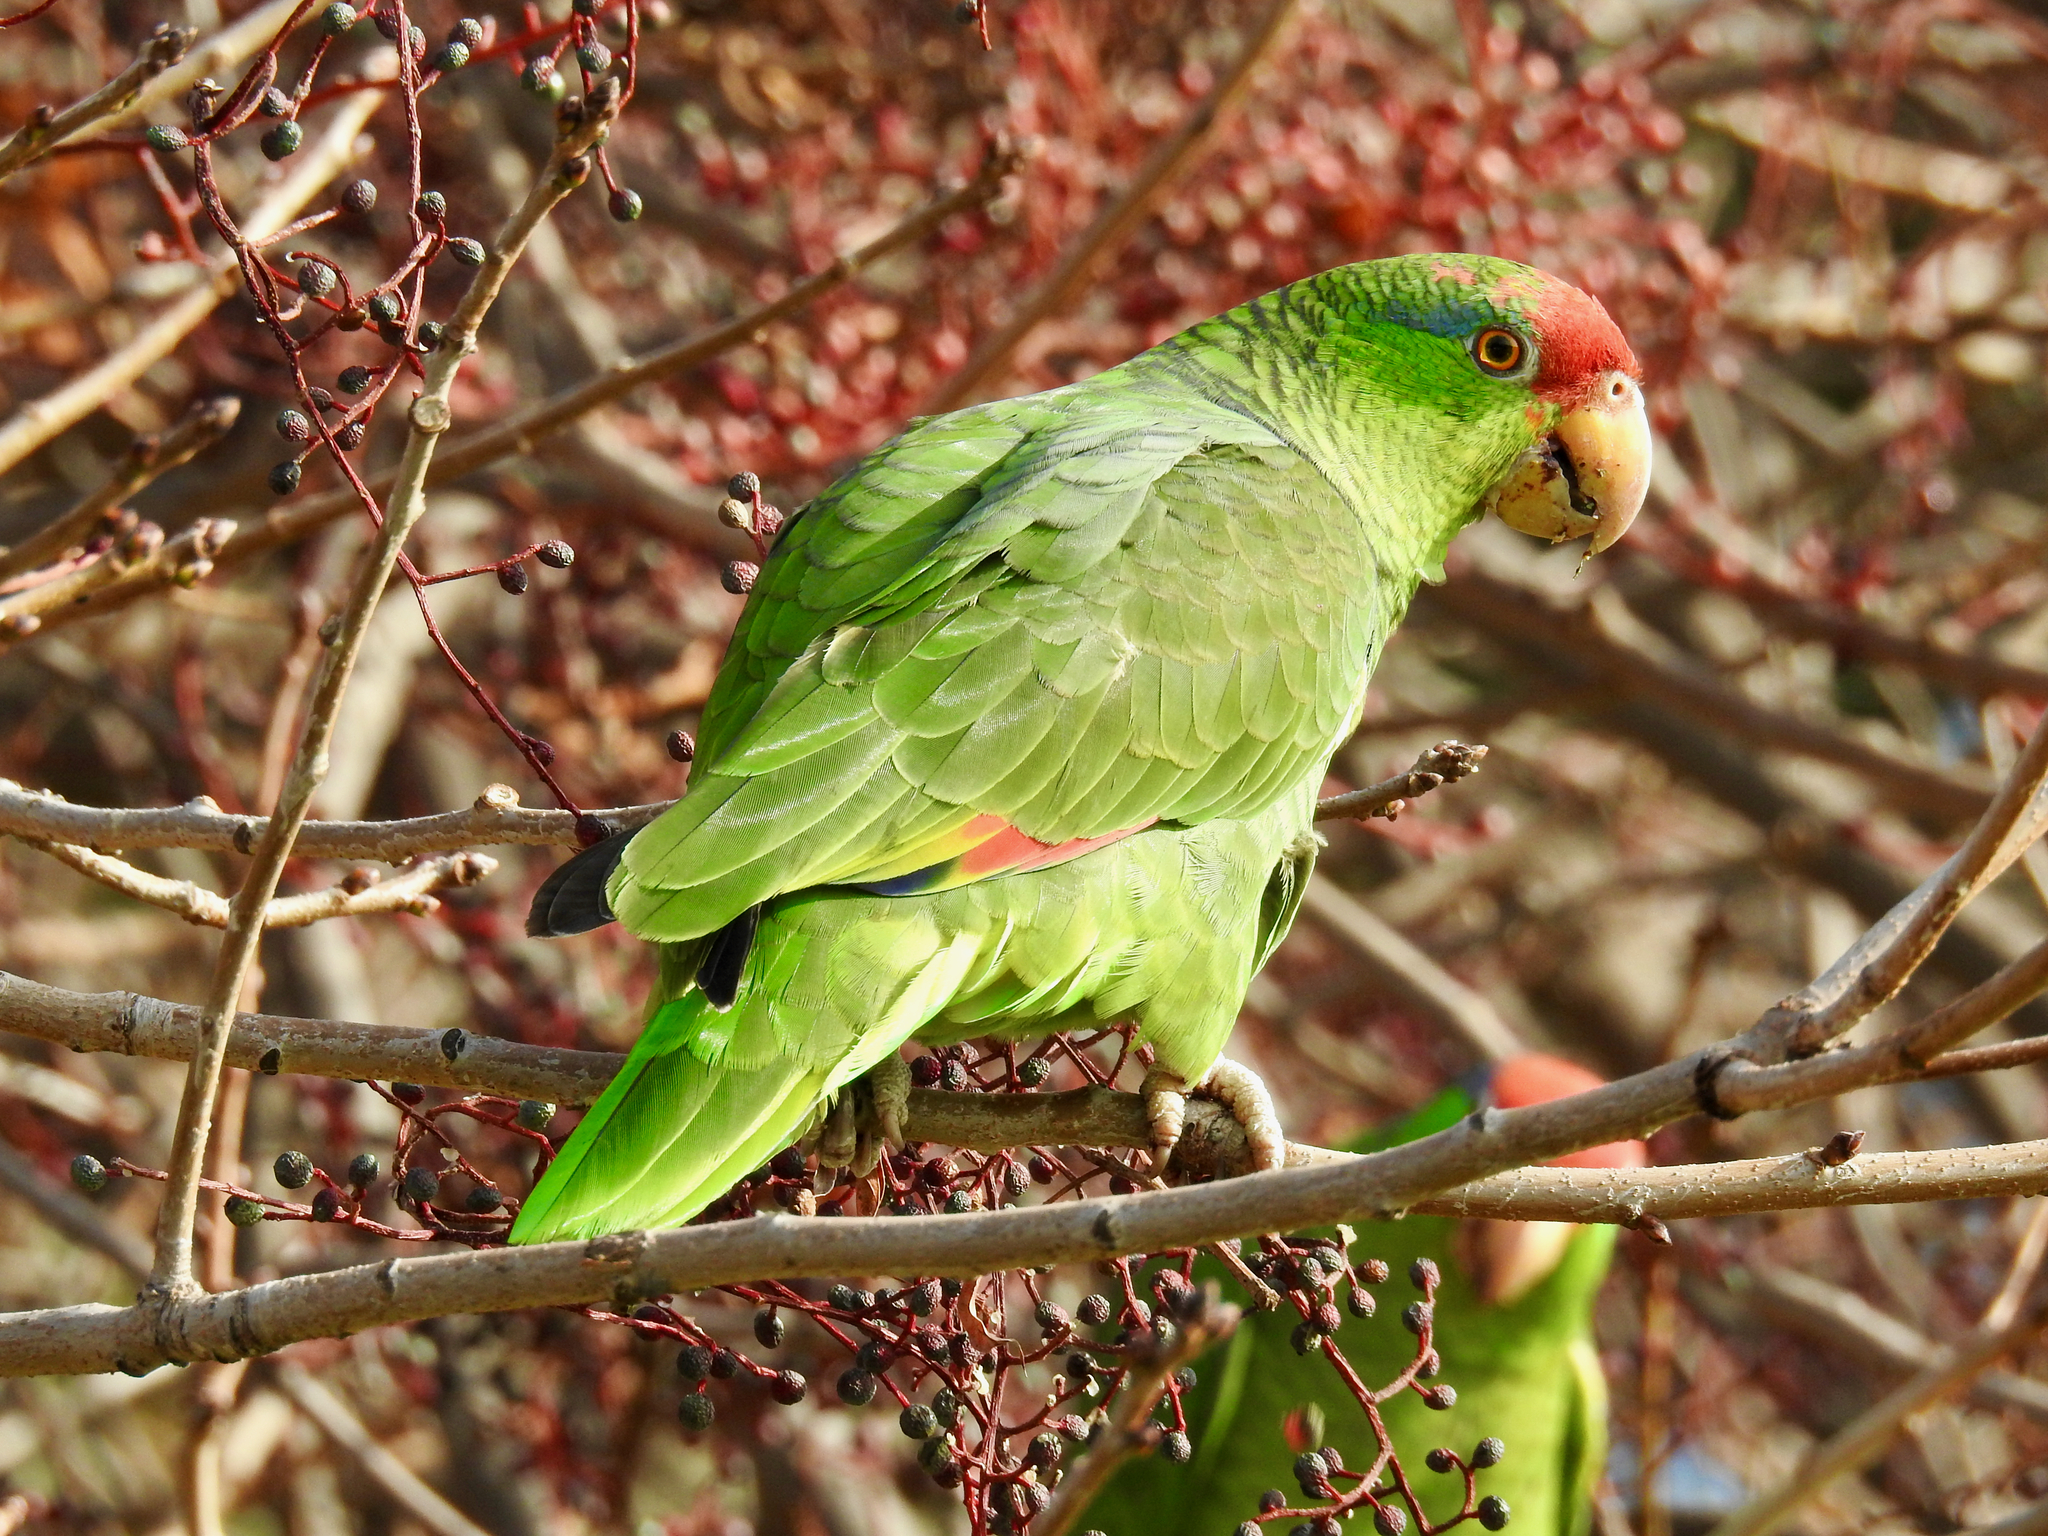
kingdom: Animalia
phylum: Chordata
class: Aves
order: Psittaciformes
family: Psittacidae
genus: Amazona
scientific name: Amazona viridigenalis
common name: Red-crowned amazon
